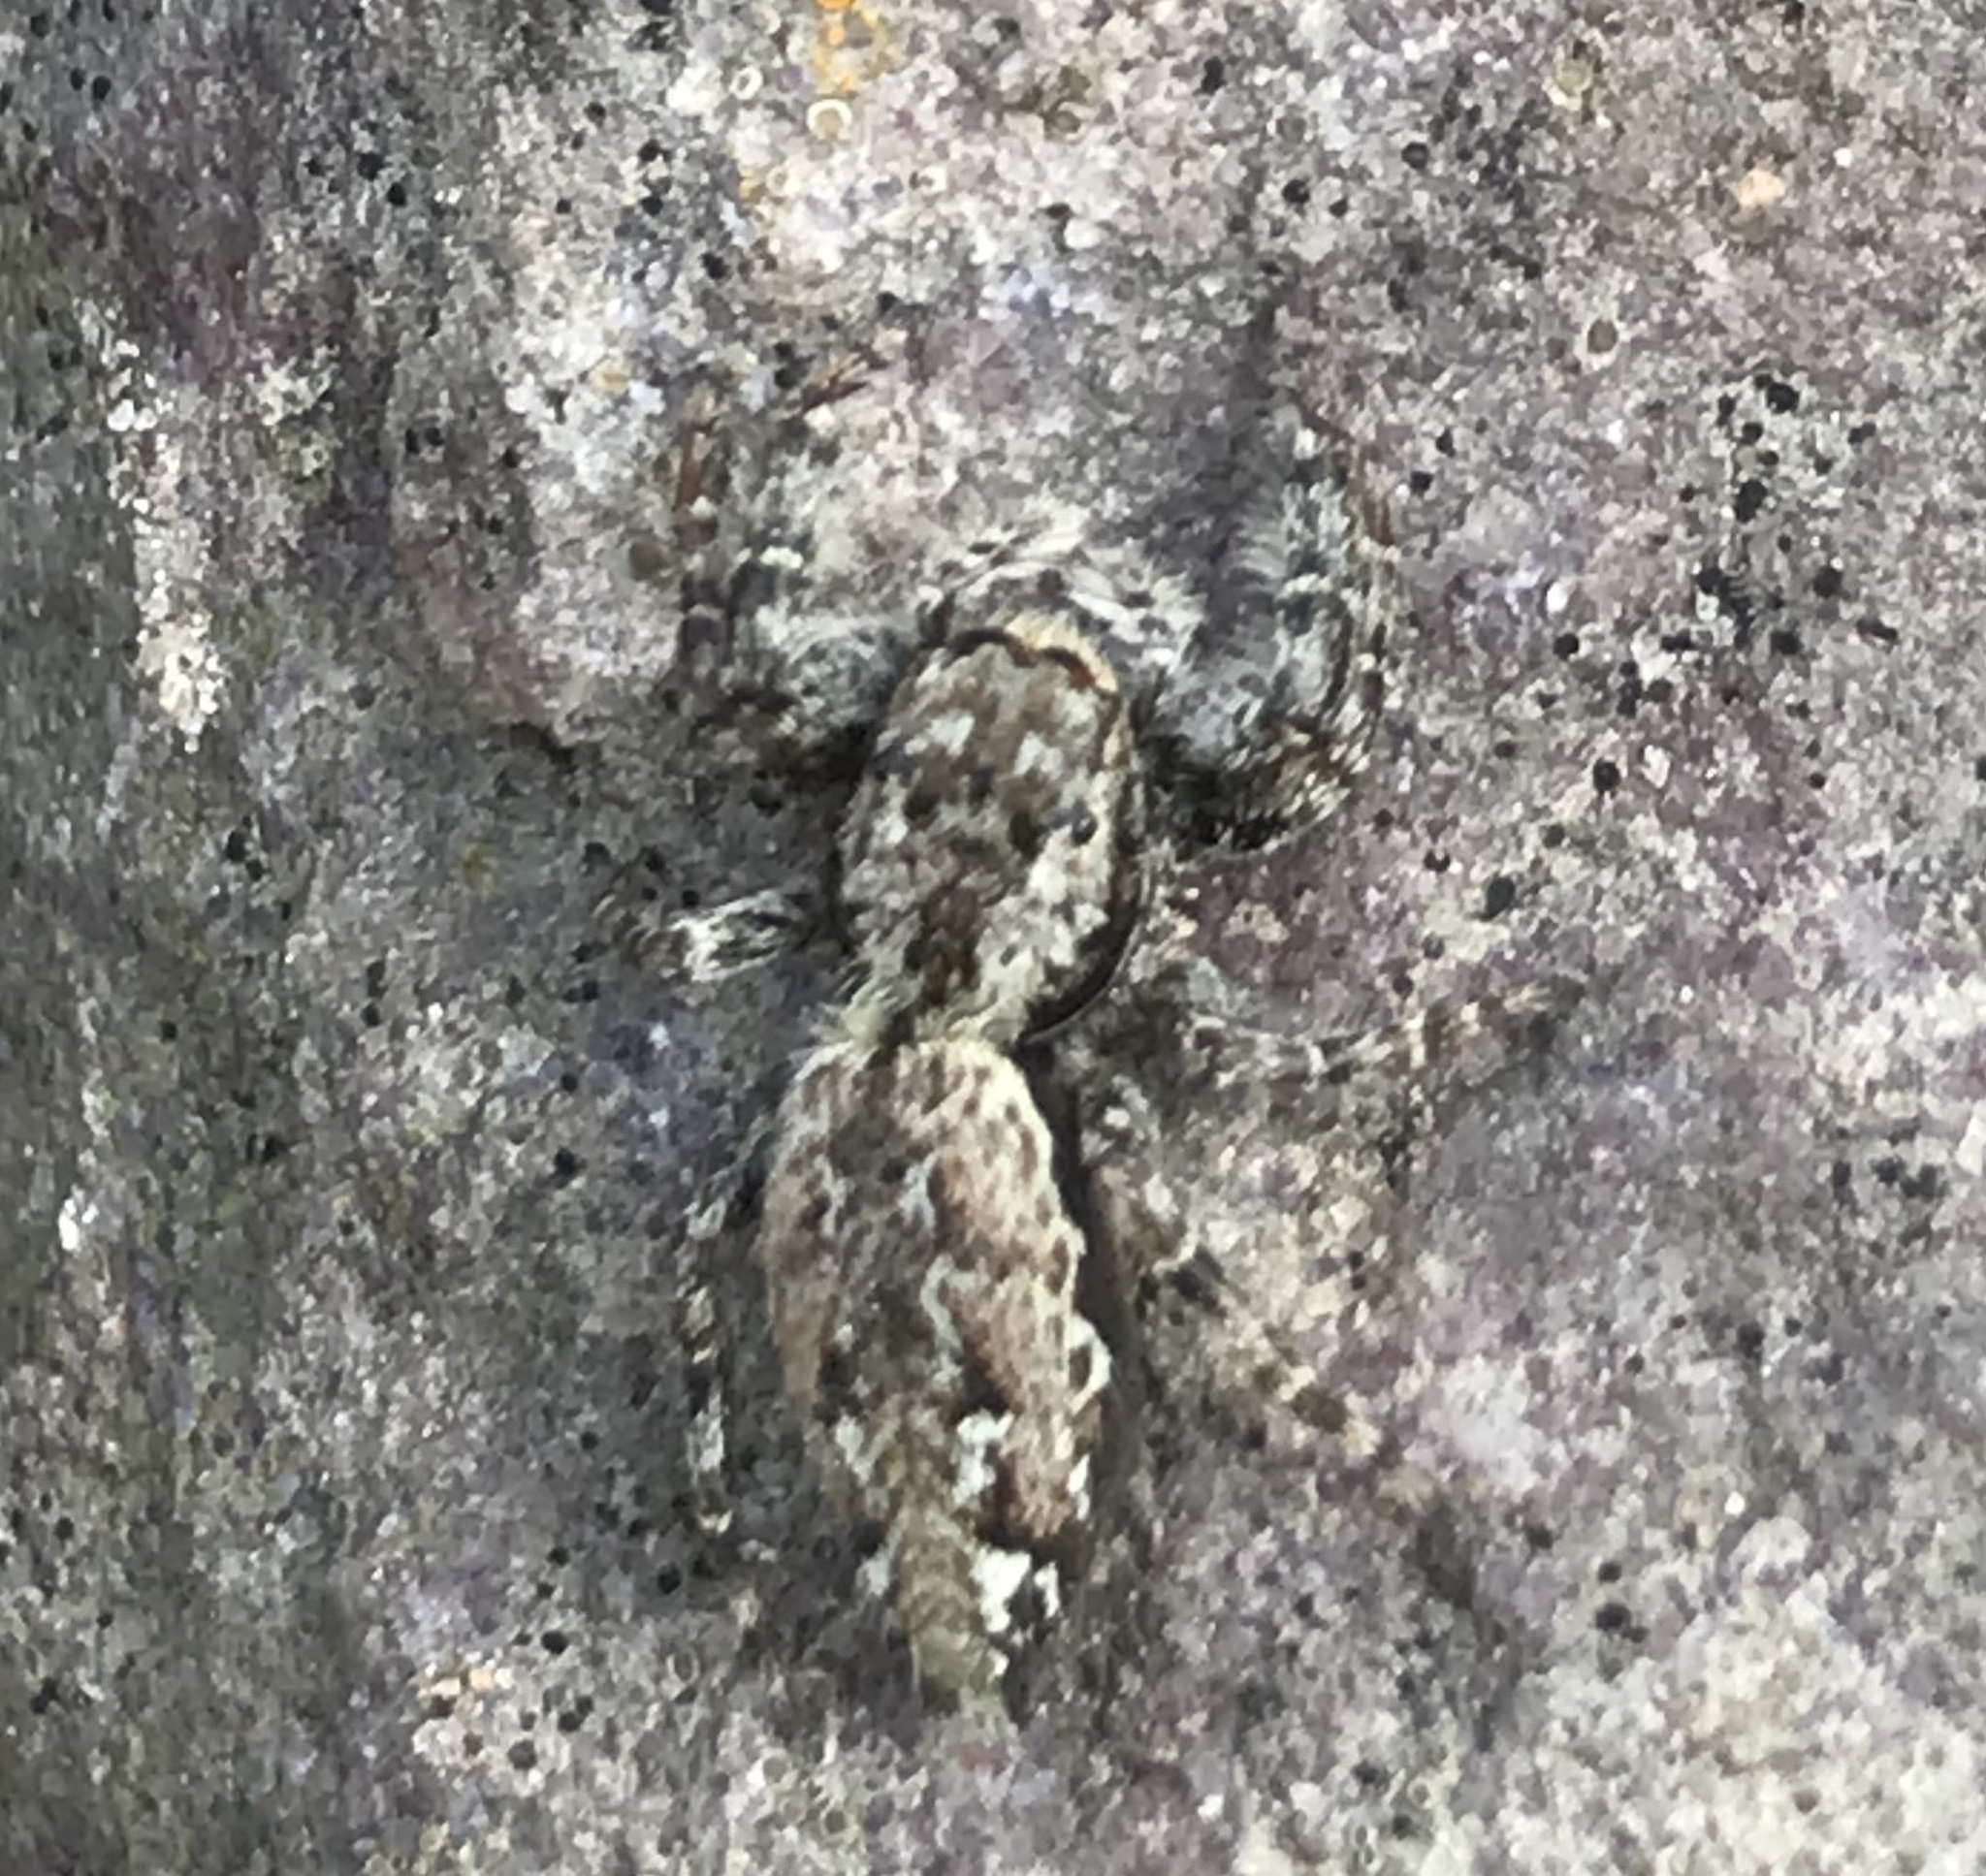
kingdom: Animalia
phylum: Arthropoda
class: Arachnida
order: Araneae
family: Salticidae
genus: Marpissa
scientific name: Marpissa muscosa
